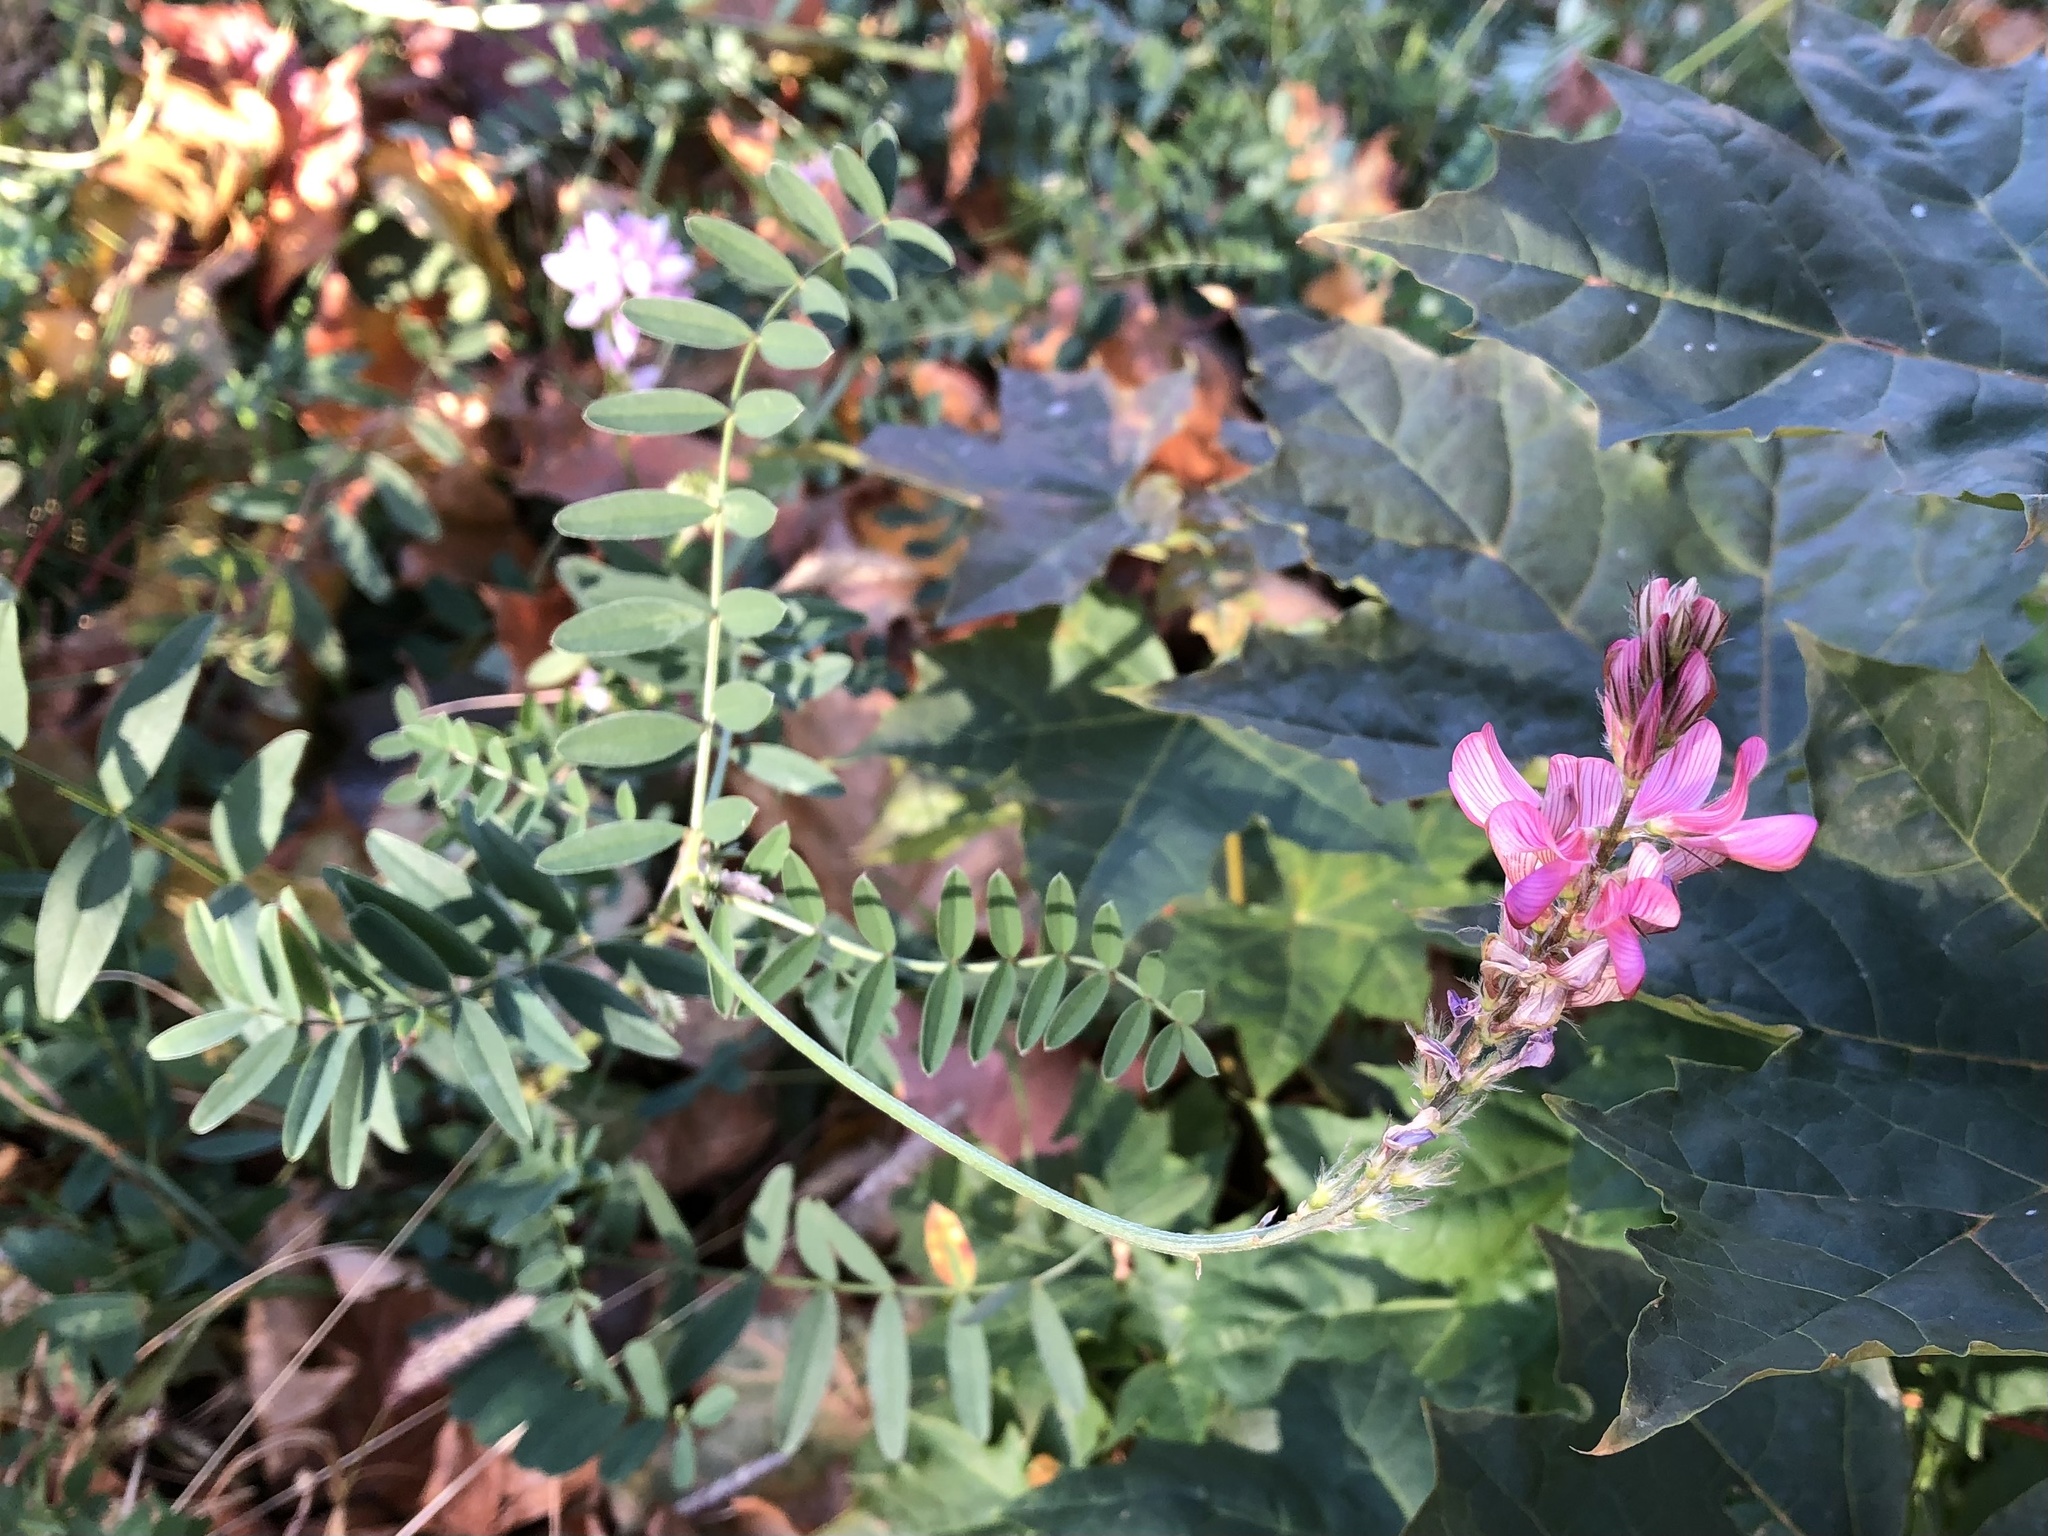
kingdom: Plantae
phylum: Tracheophyta
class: Magnoliopsida
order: Fabales
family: Fabaceae
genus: Onobrychis
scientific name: Onobrychis viciifolia
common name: Sainfoin
